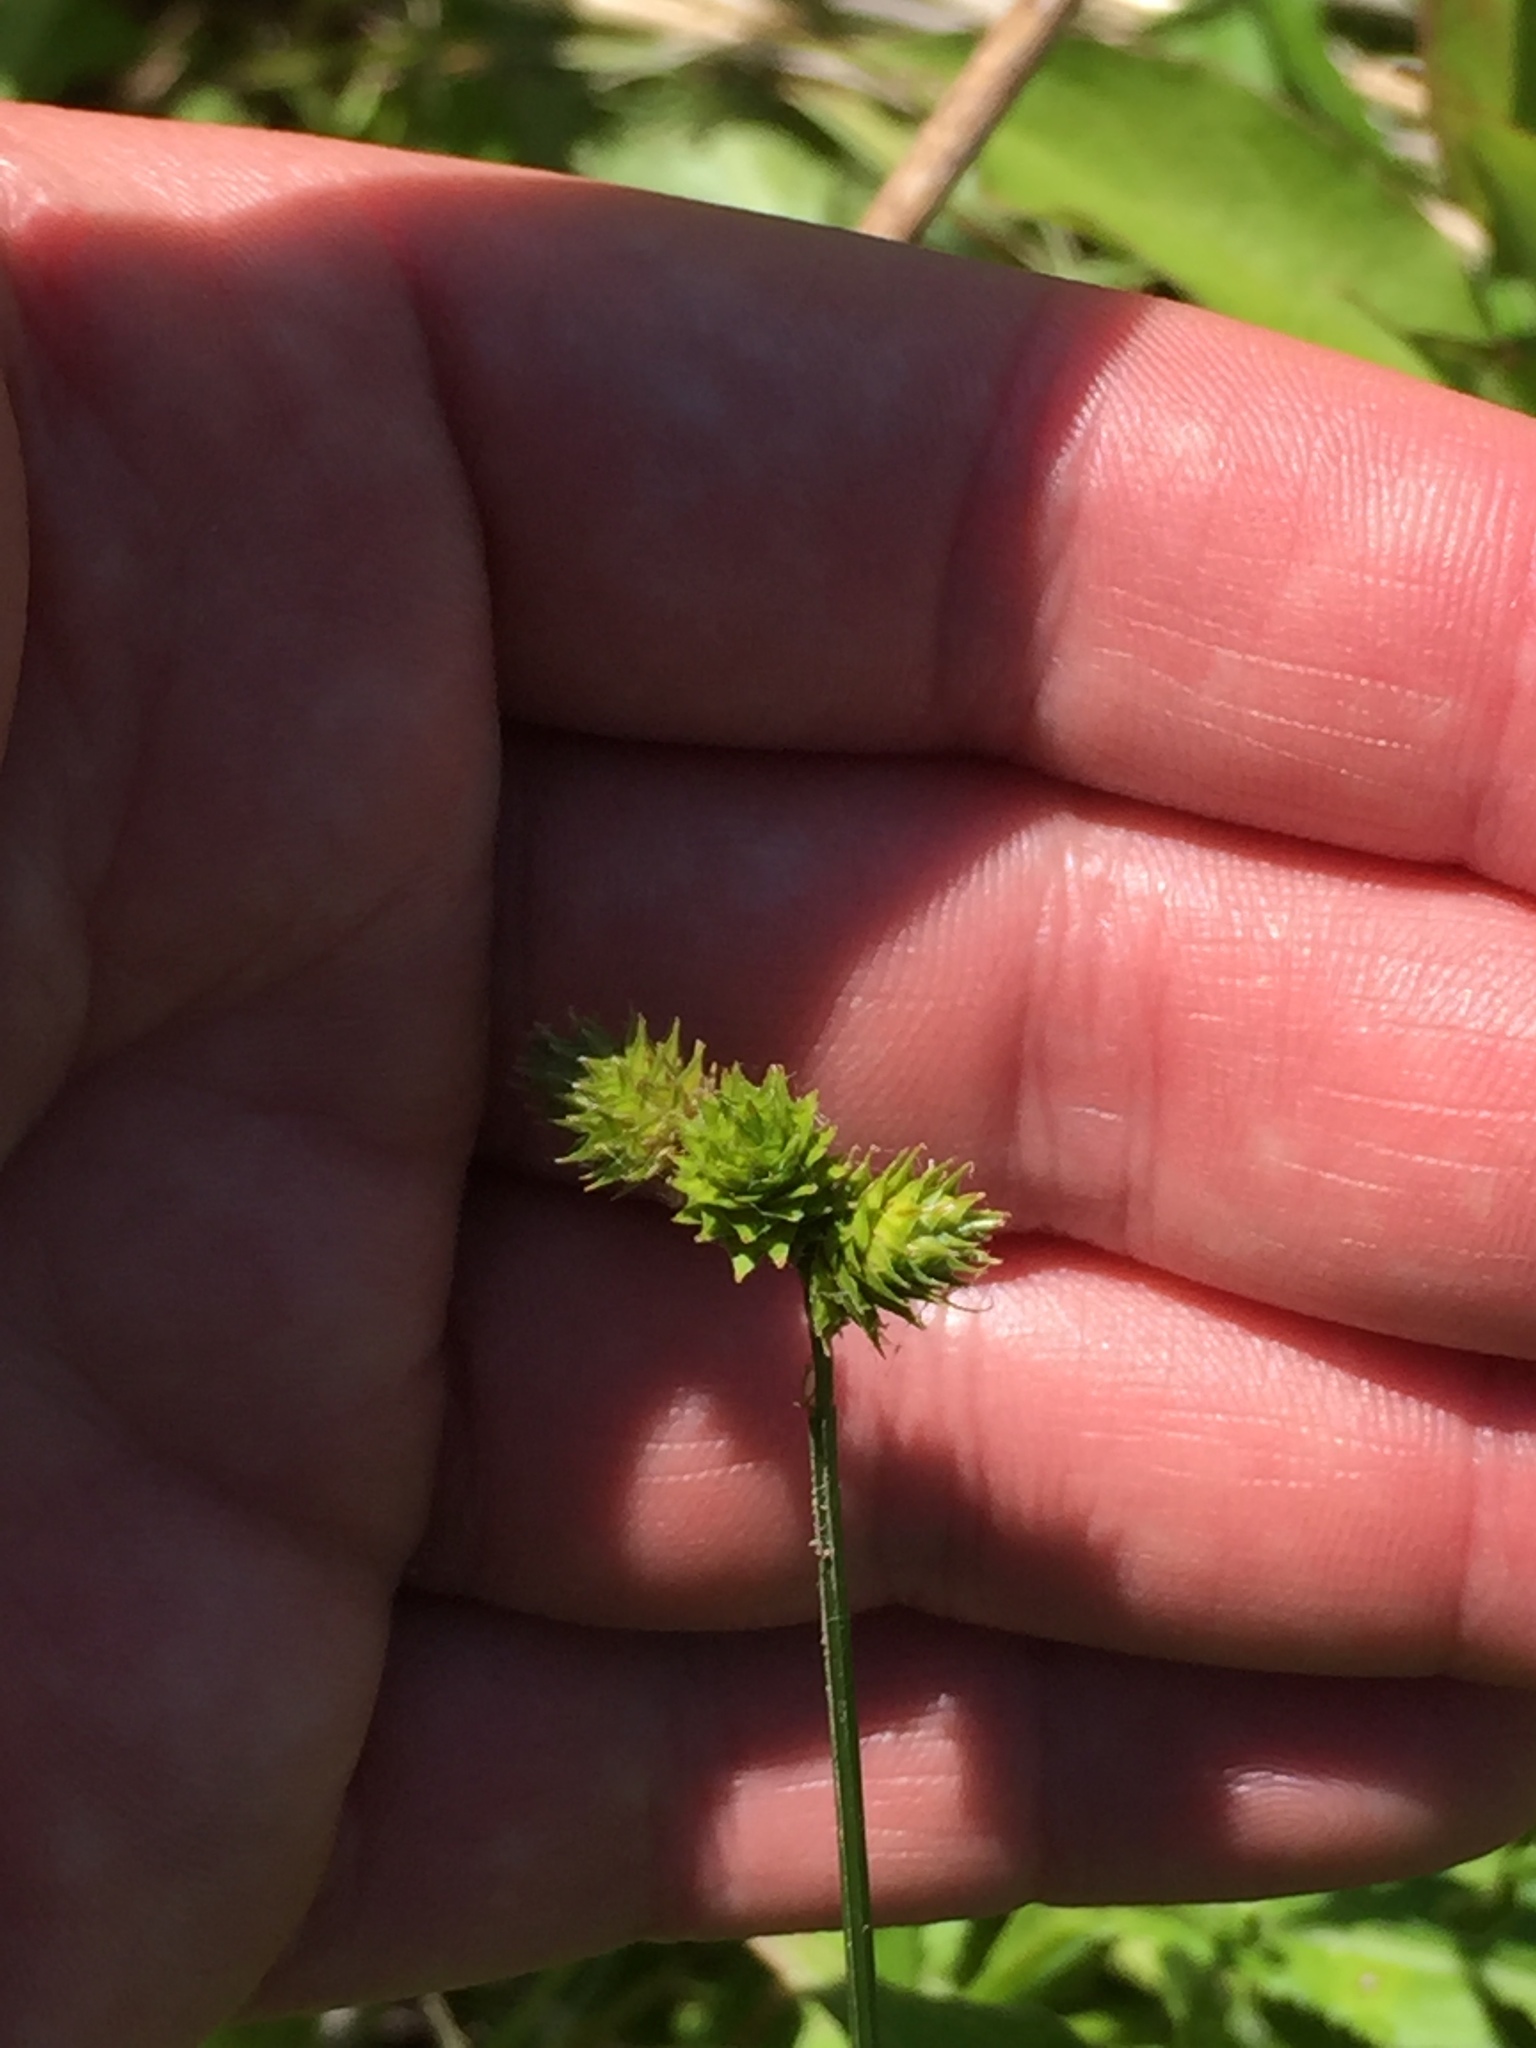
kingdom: Plantae
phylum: Tracheophyta
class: Liliopsida
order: Poales
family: Cyperaceae
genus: Carex
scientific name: Carex cristatella
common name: Crested oval sedge
